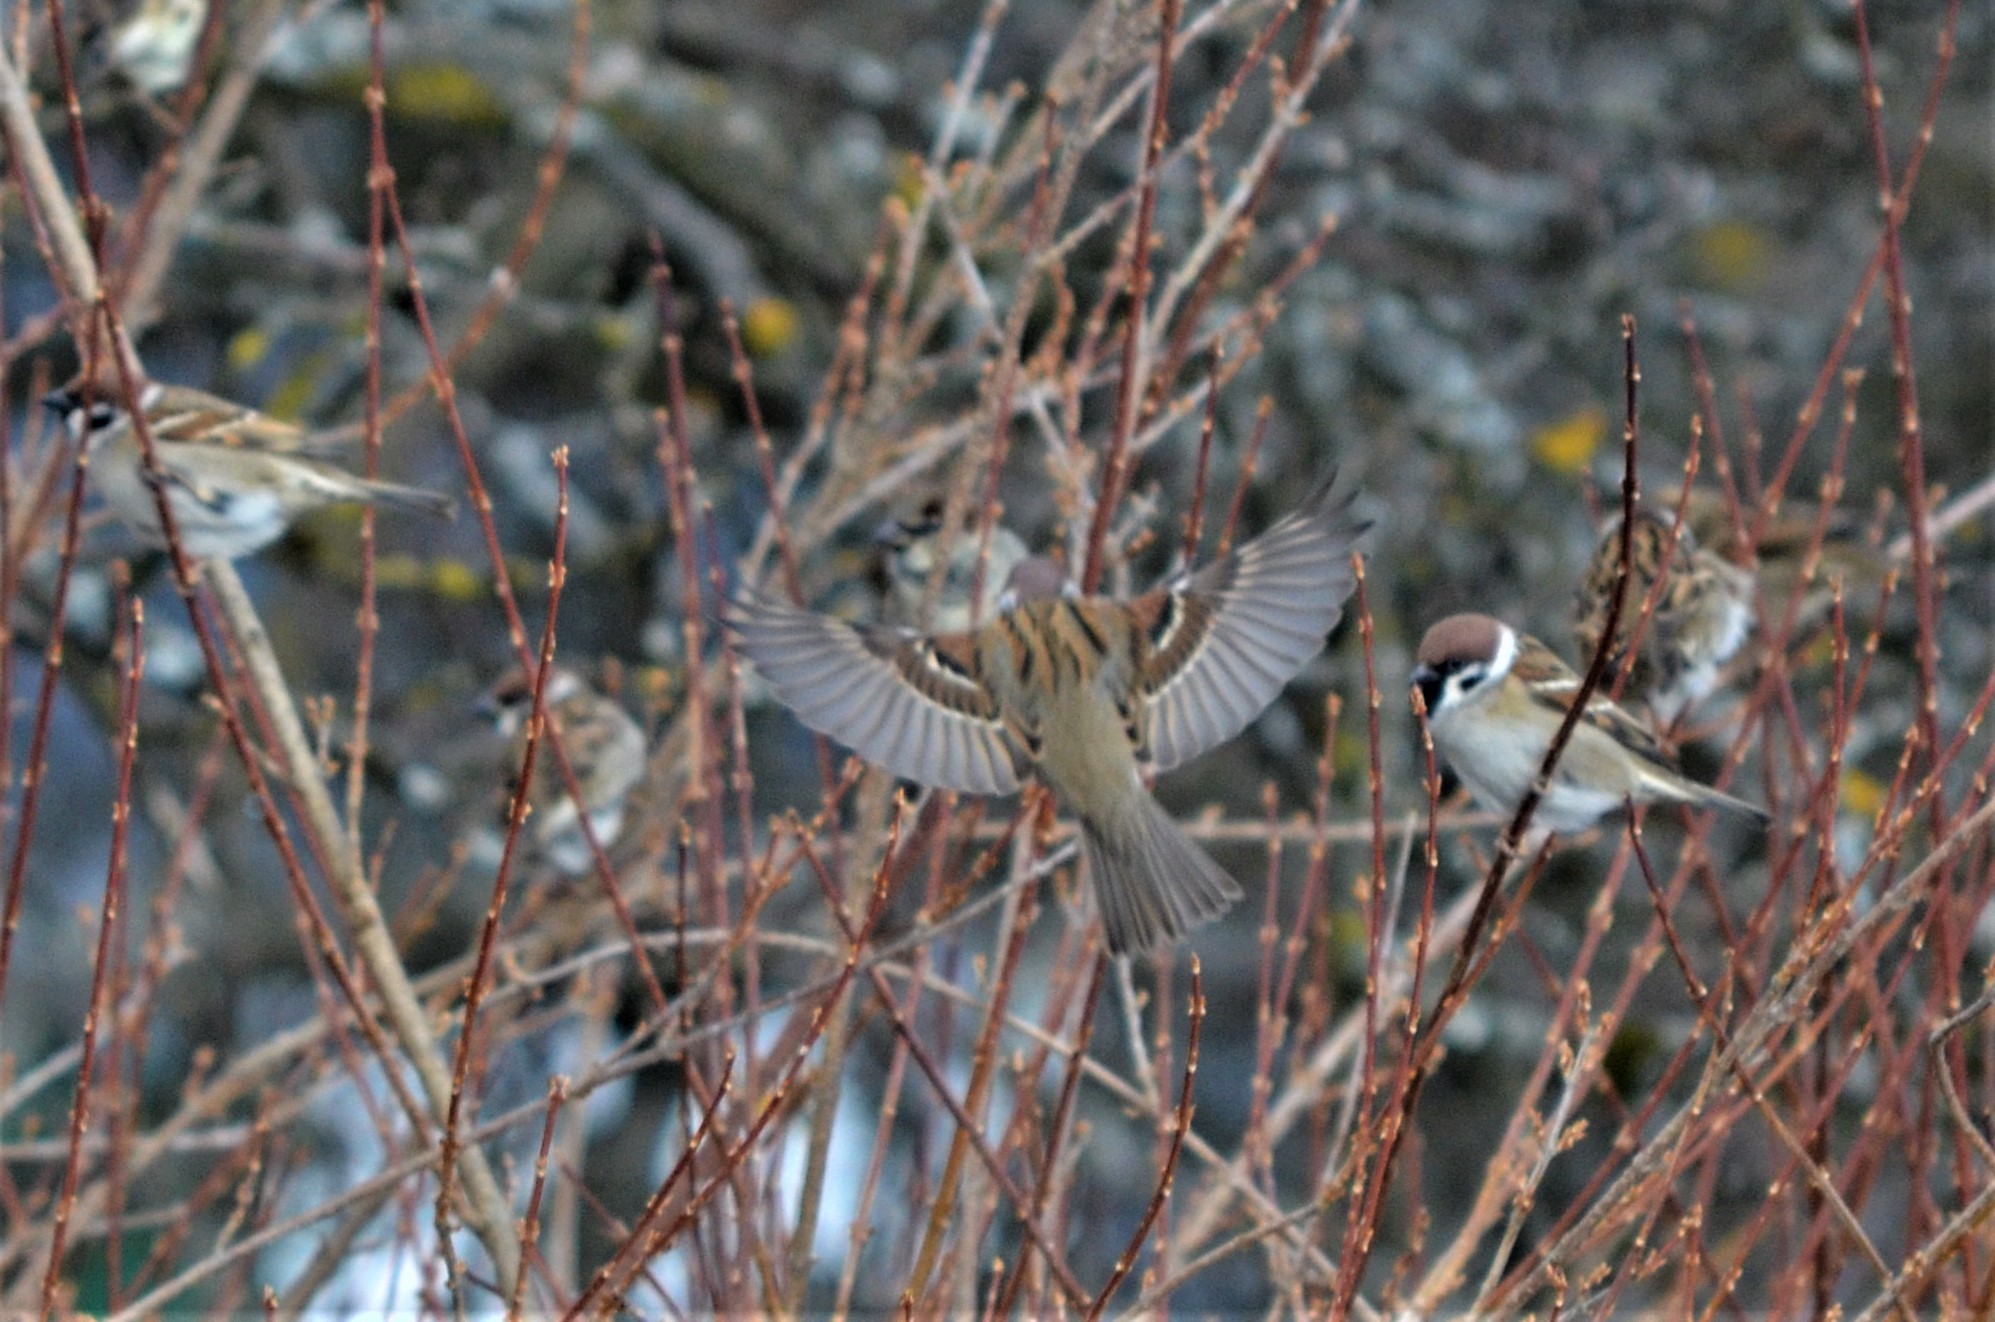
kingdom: Animalia
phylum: Chordata
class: Aves
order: Passeriformes
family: Passeridae
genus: Passer
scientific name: Passer montanus
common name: Eurasian tree sparrow
